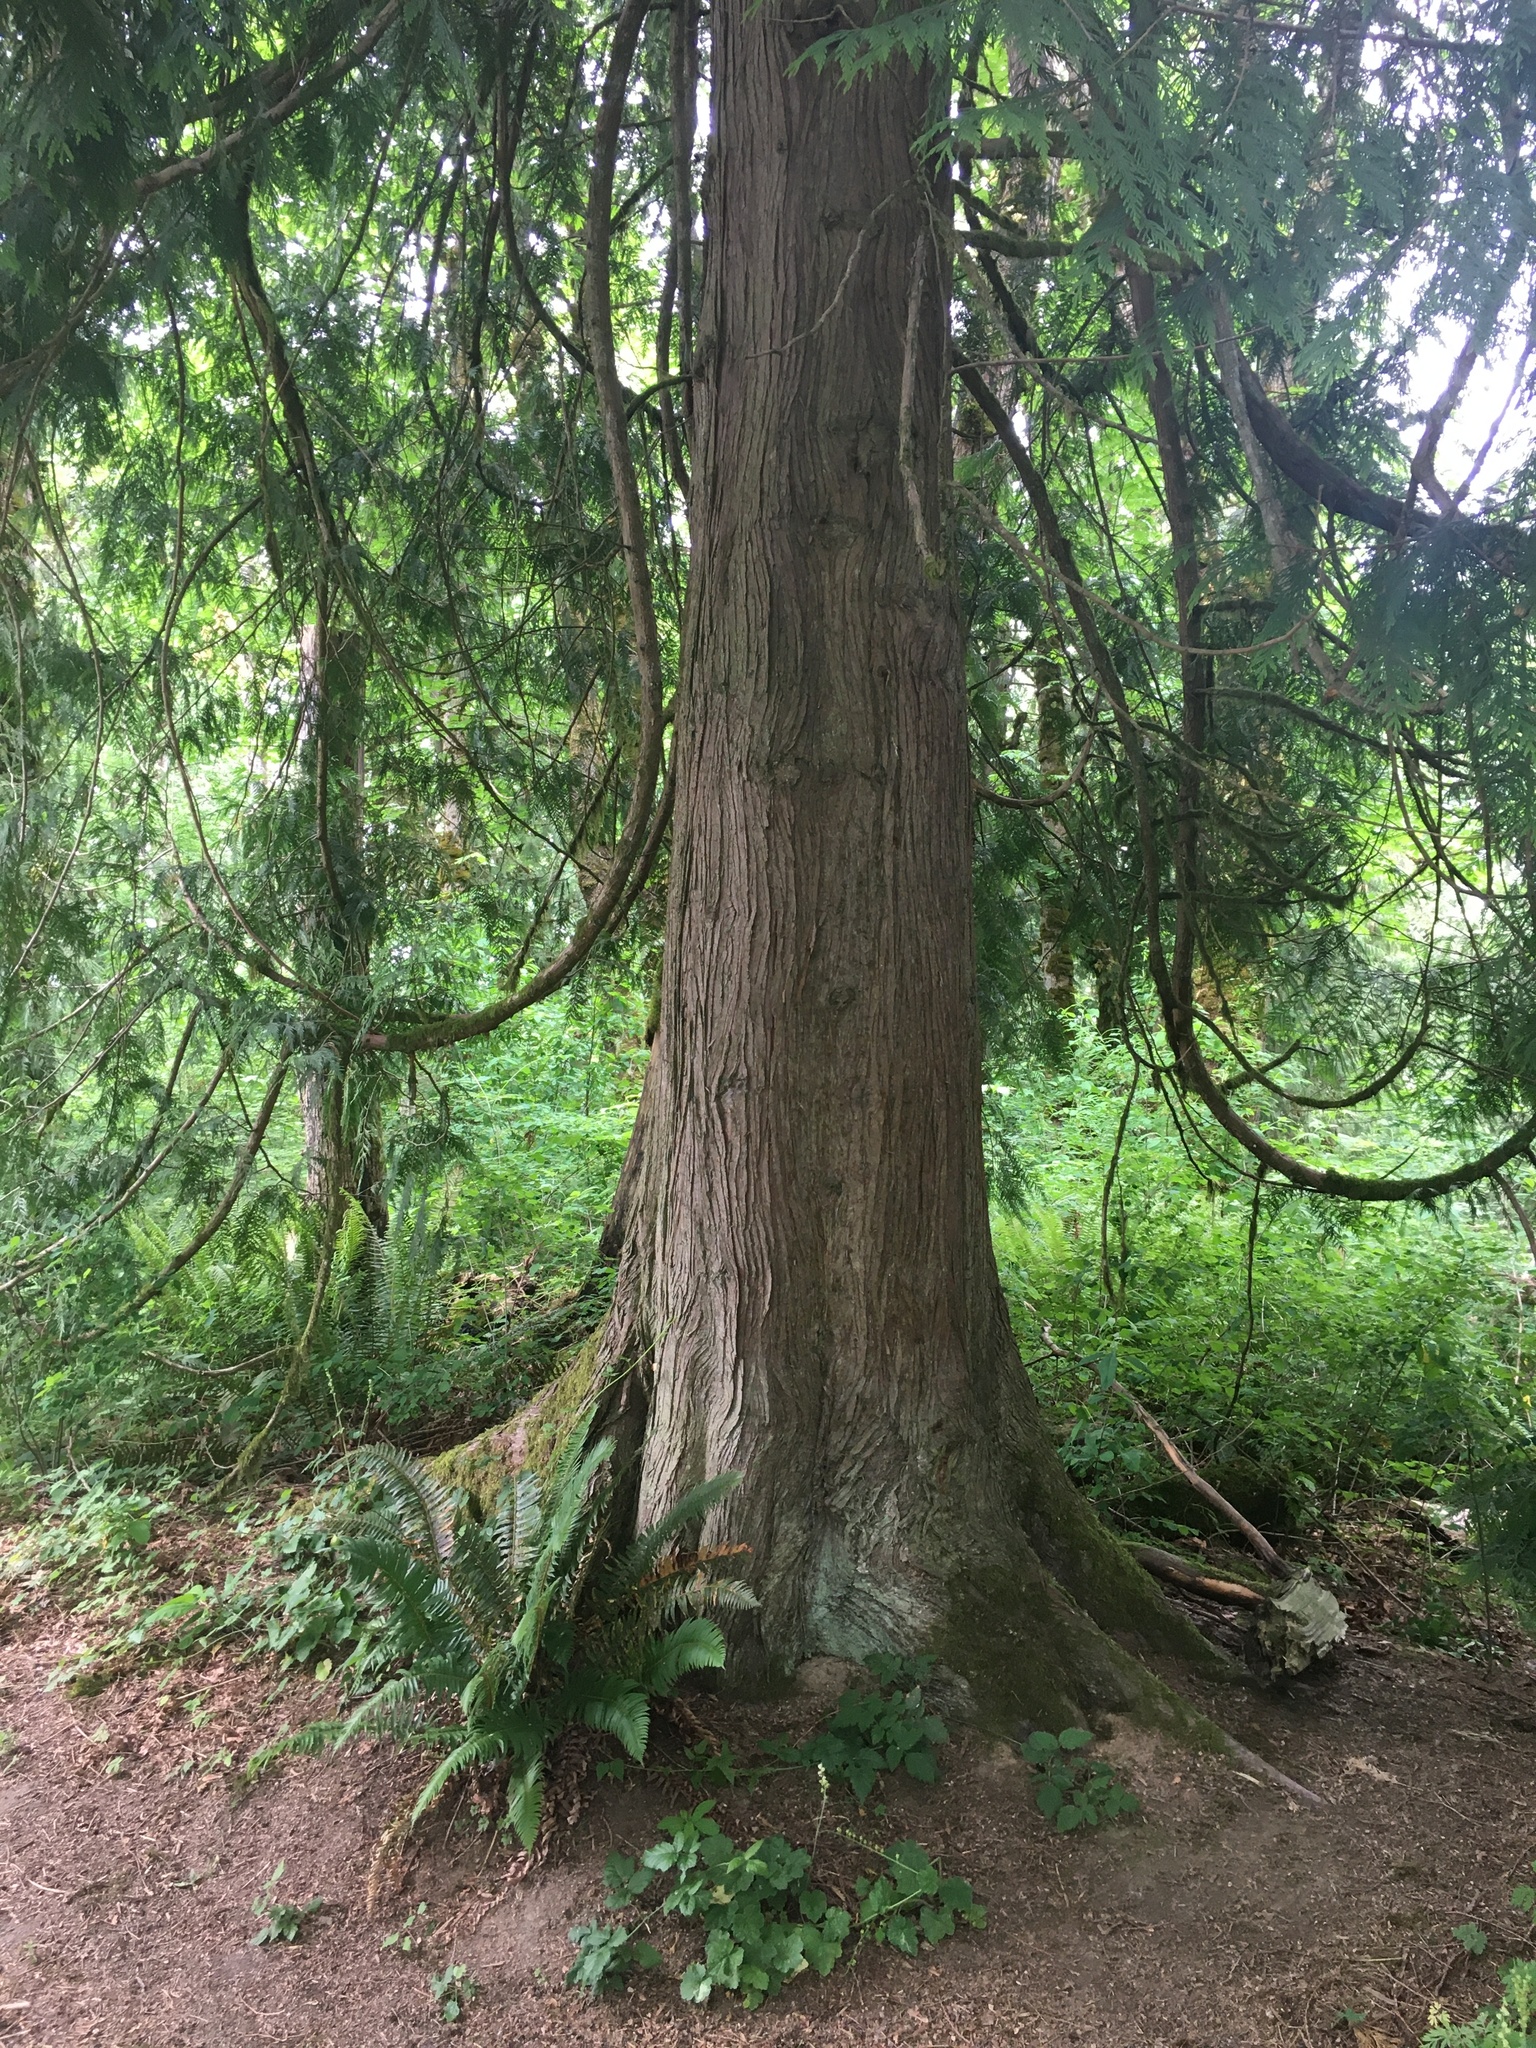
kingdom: Plantae
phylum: Tracheophyta
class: Pinopsida
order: Pinales
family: Cupressaceae
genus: Thuja
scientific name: Thuja plicata
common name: Western red-cedar
